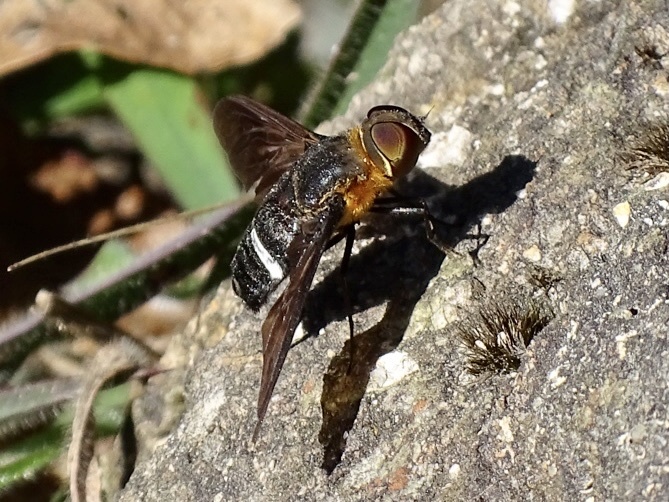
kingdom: Animalia
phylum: Arthropoda
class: Insecta
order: Diptera
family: Bombyliidae
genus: Ligyra
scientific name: Ligyra tantalus
